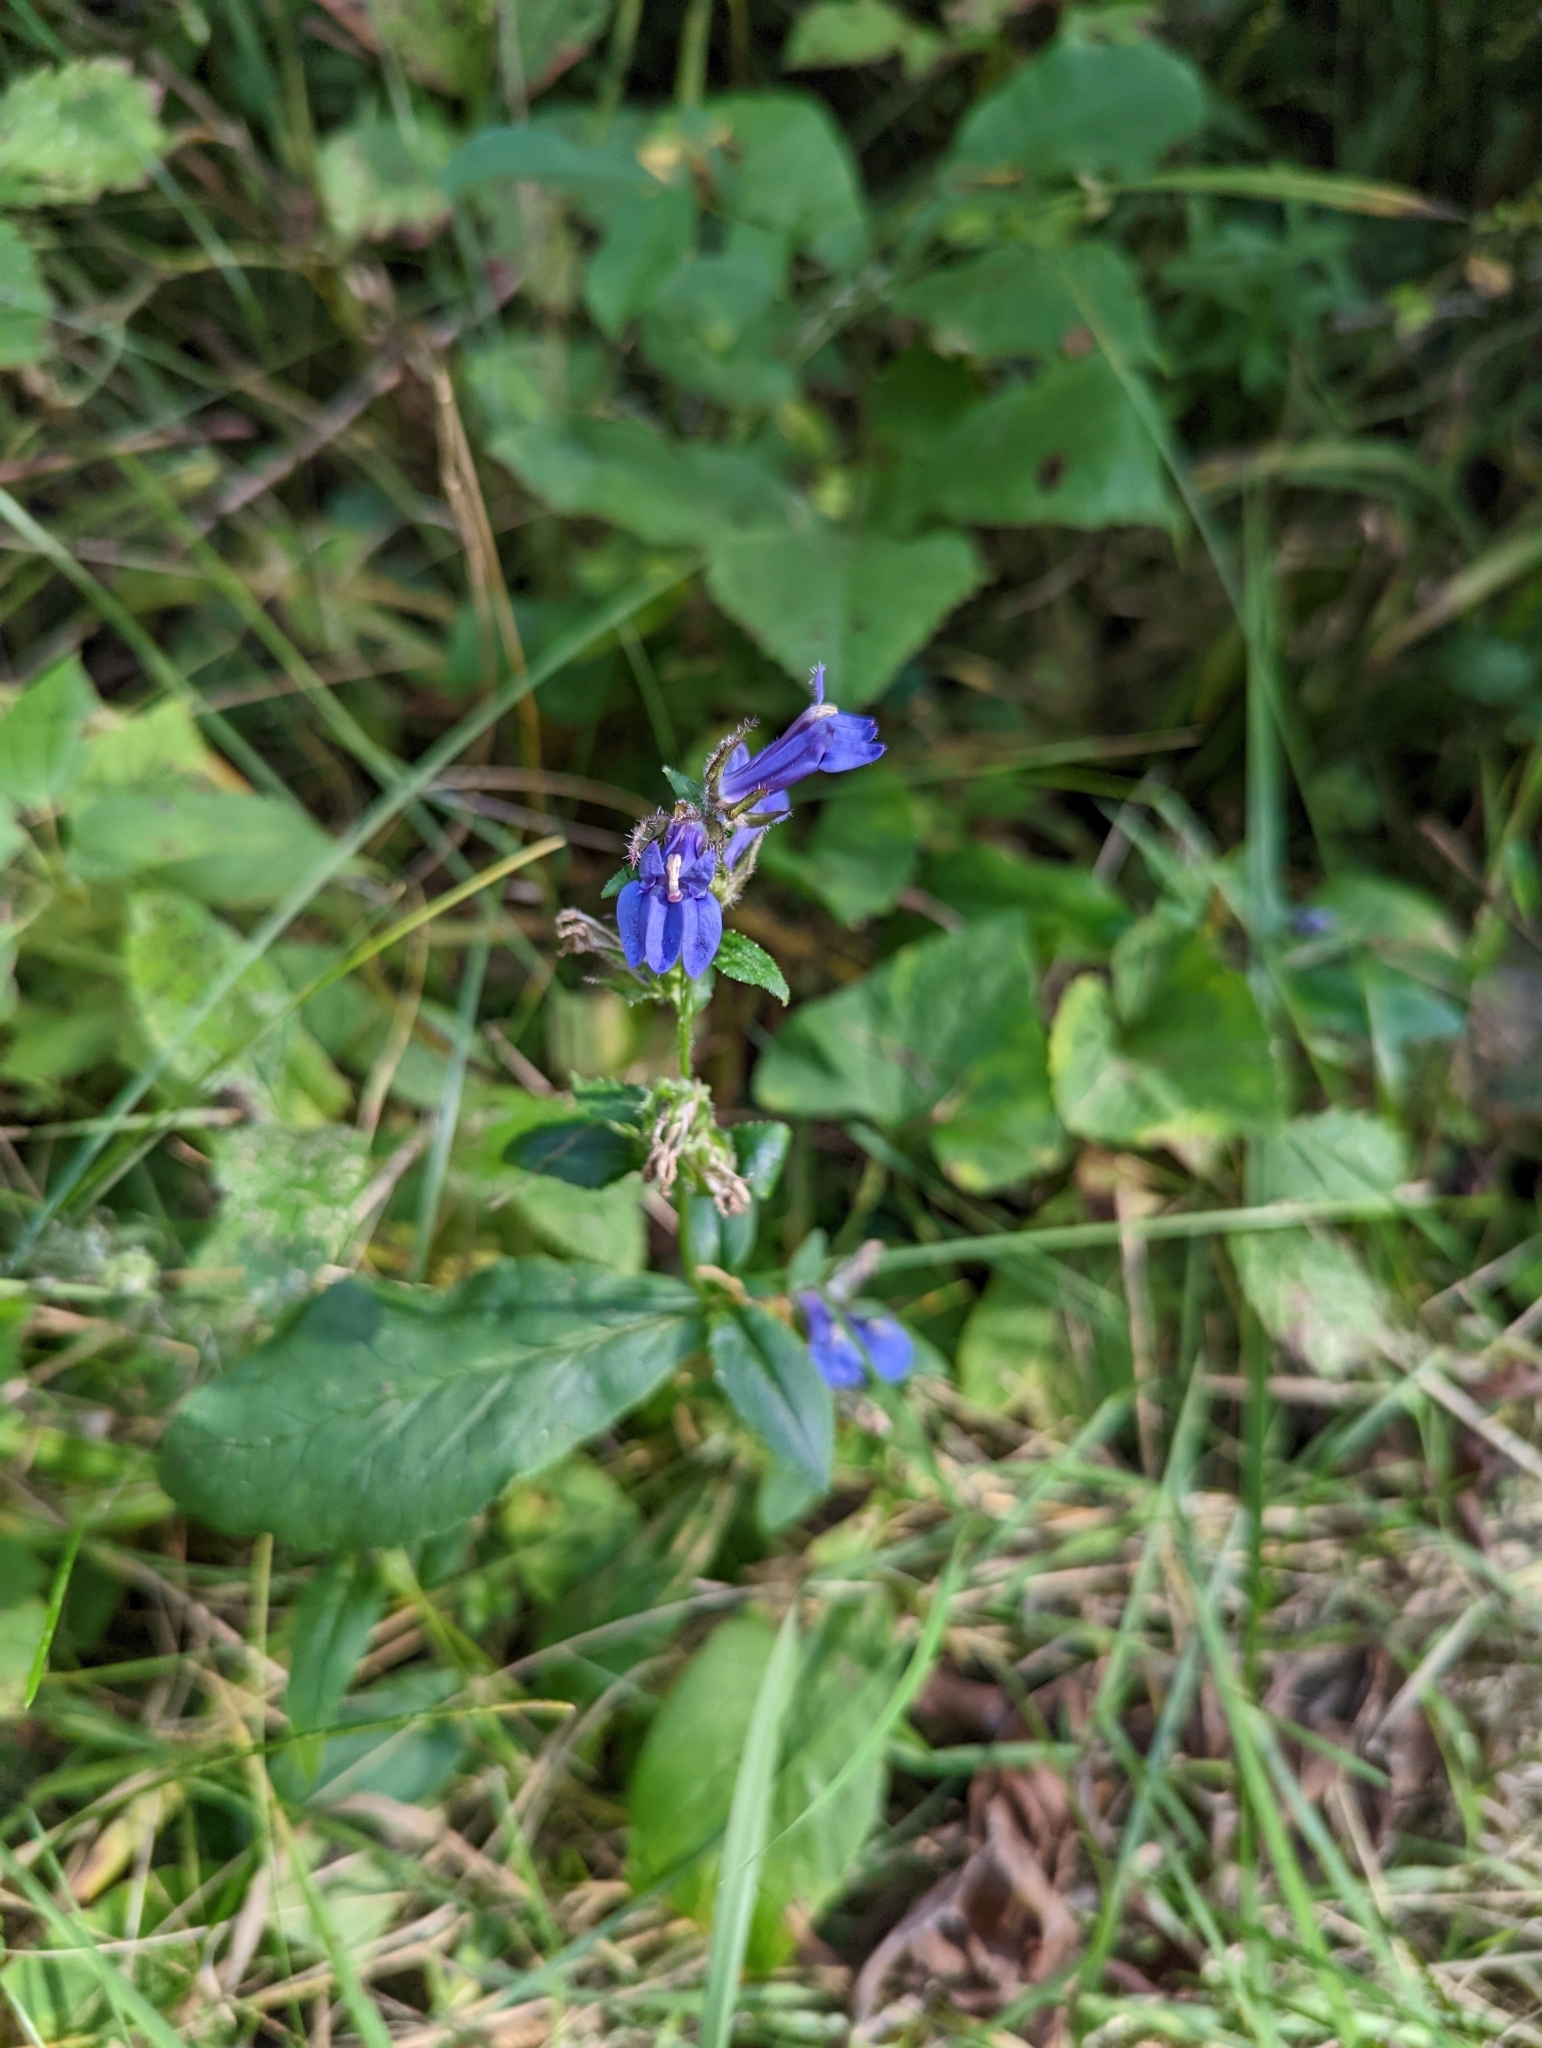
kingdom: Plantae
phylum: Tracheophyta
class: Magnoliopsida
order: Asterales
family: Campanulaceae
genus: Lobelia
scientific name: Lobelia siphilitica
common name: Great lobelia
